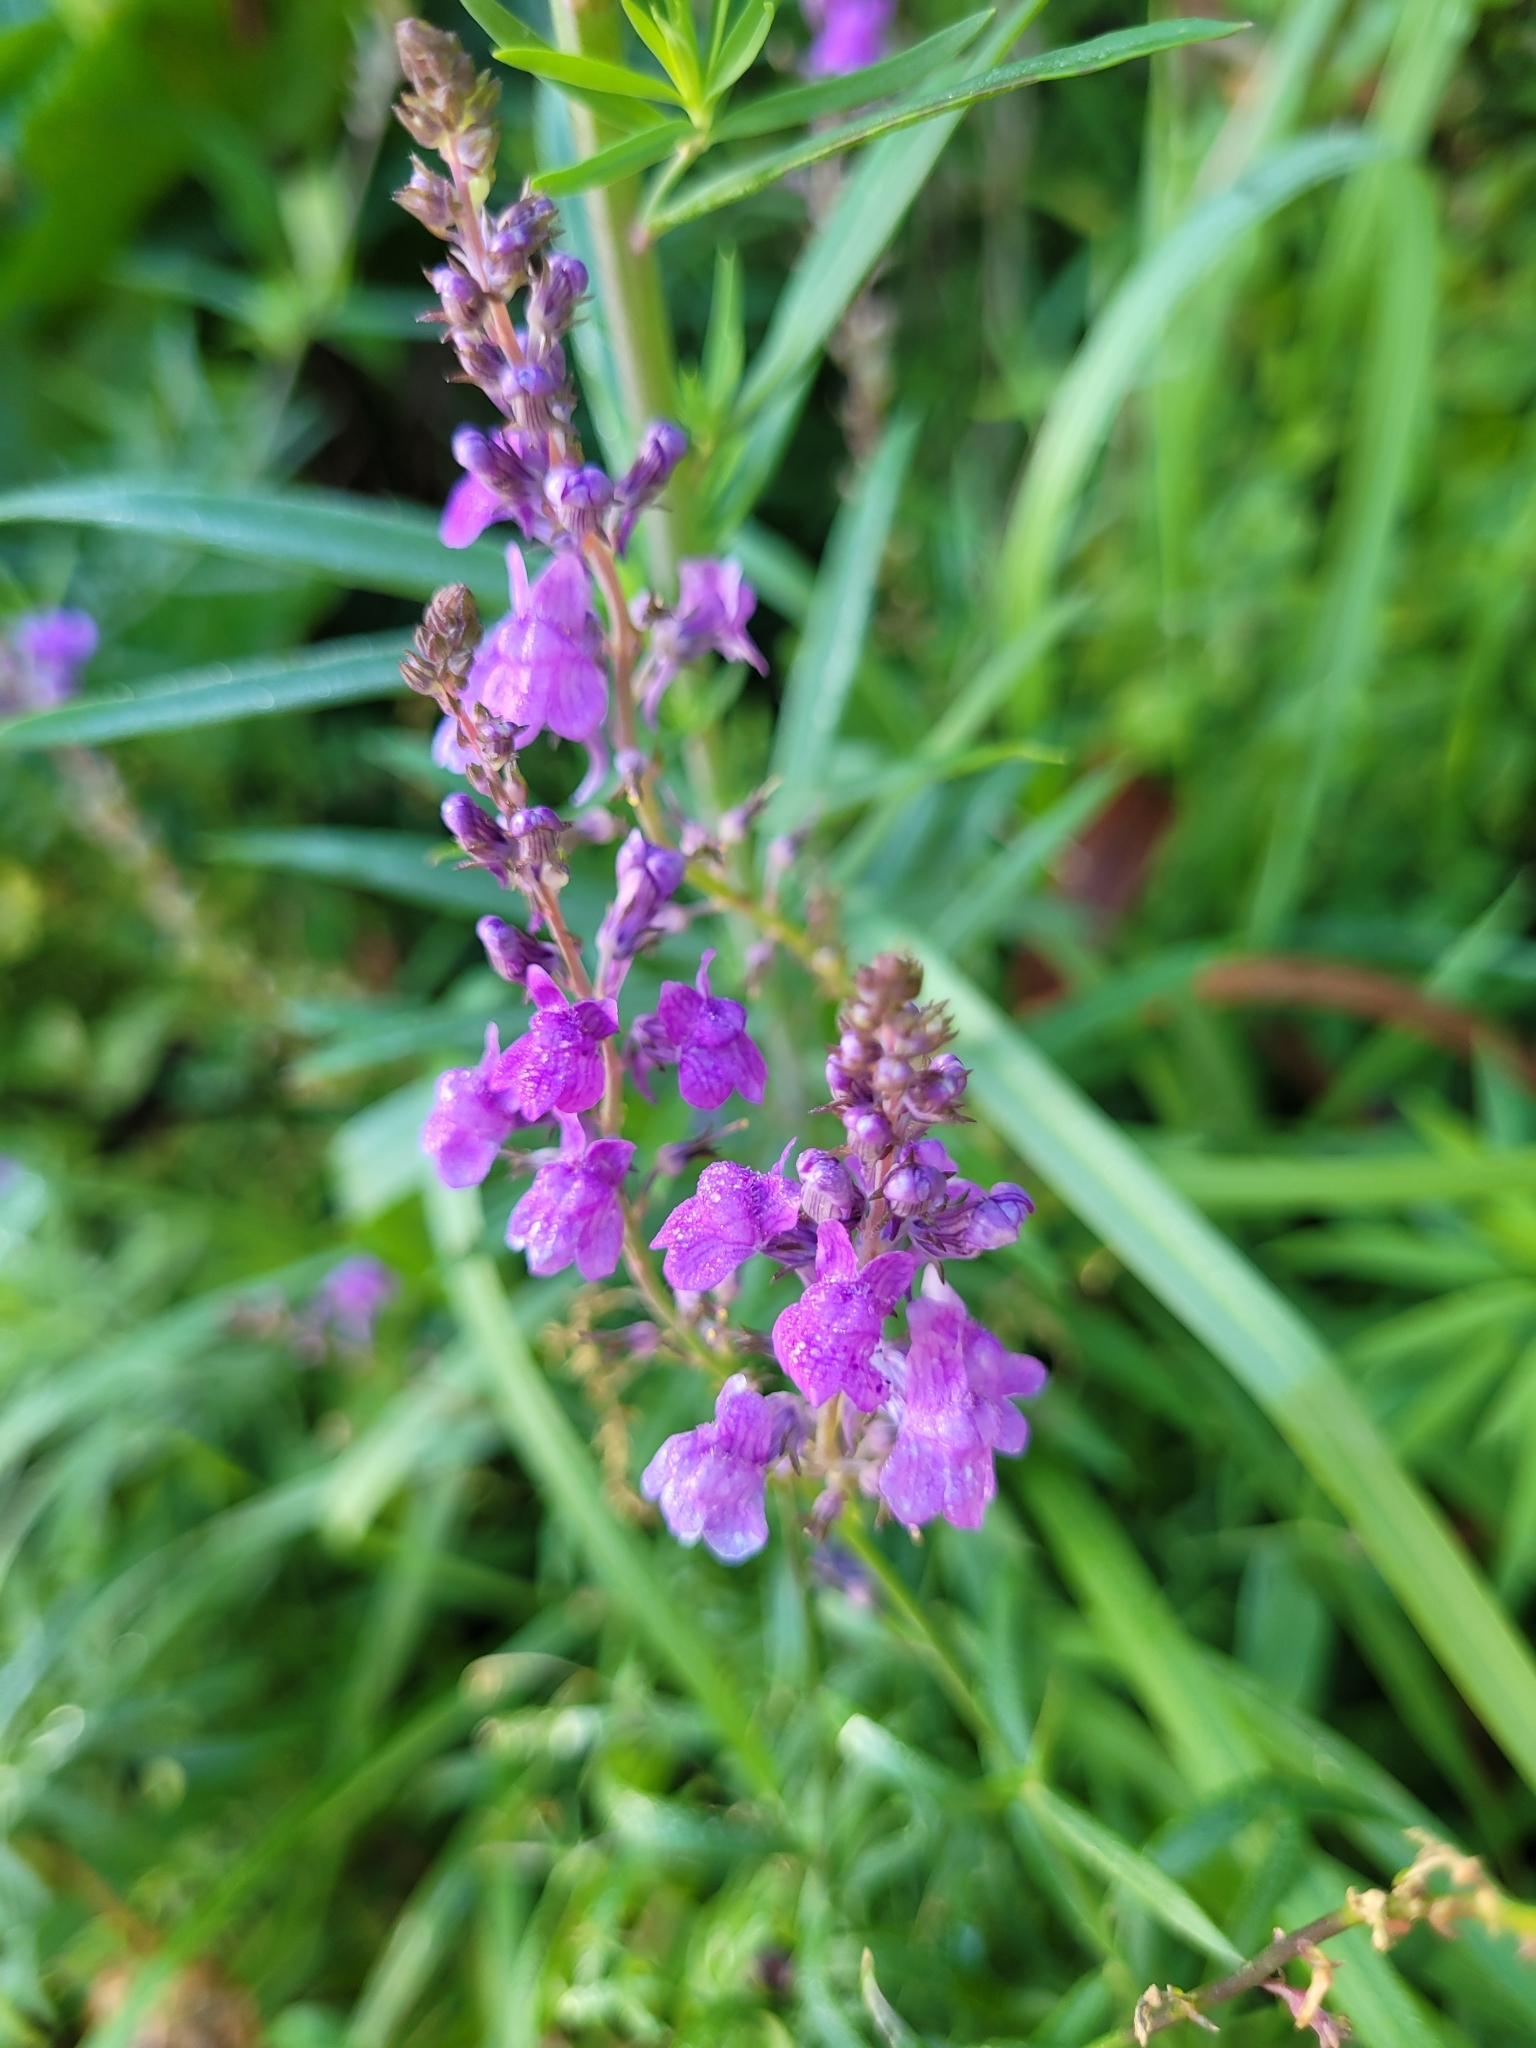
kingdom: Plantae
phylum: Tracheophyta
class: Magnoliopsida
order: Lamiales
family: Plantaginaceae
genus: Linaria
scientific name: Linaria purpurea
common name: Purple toadflax
